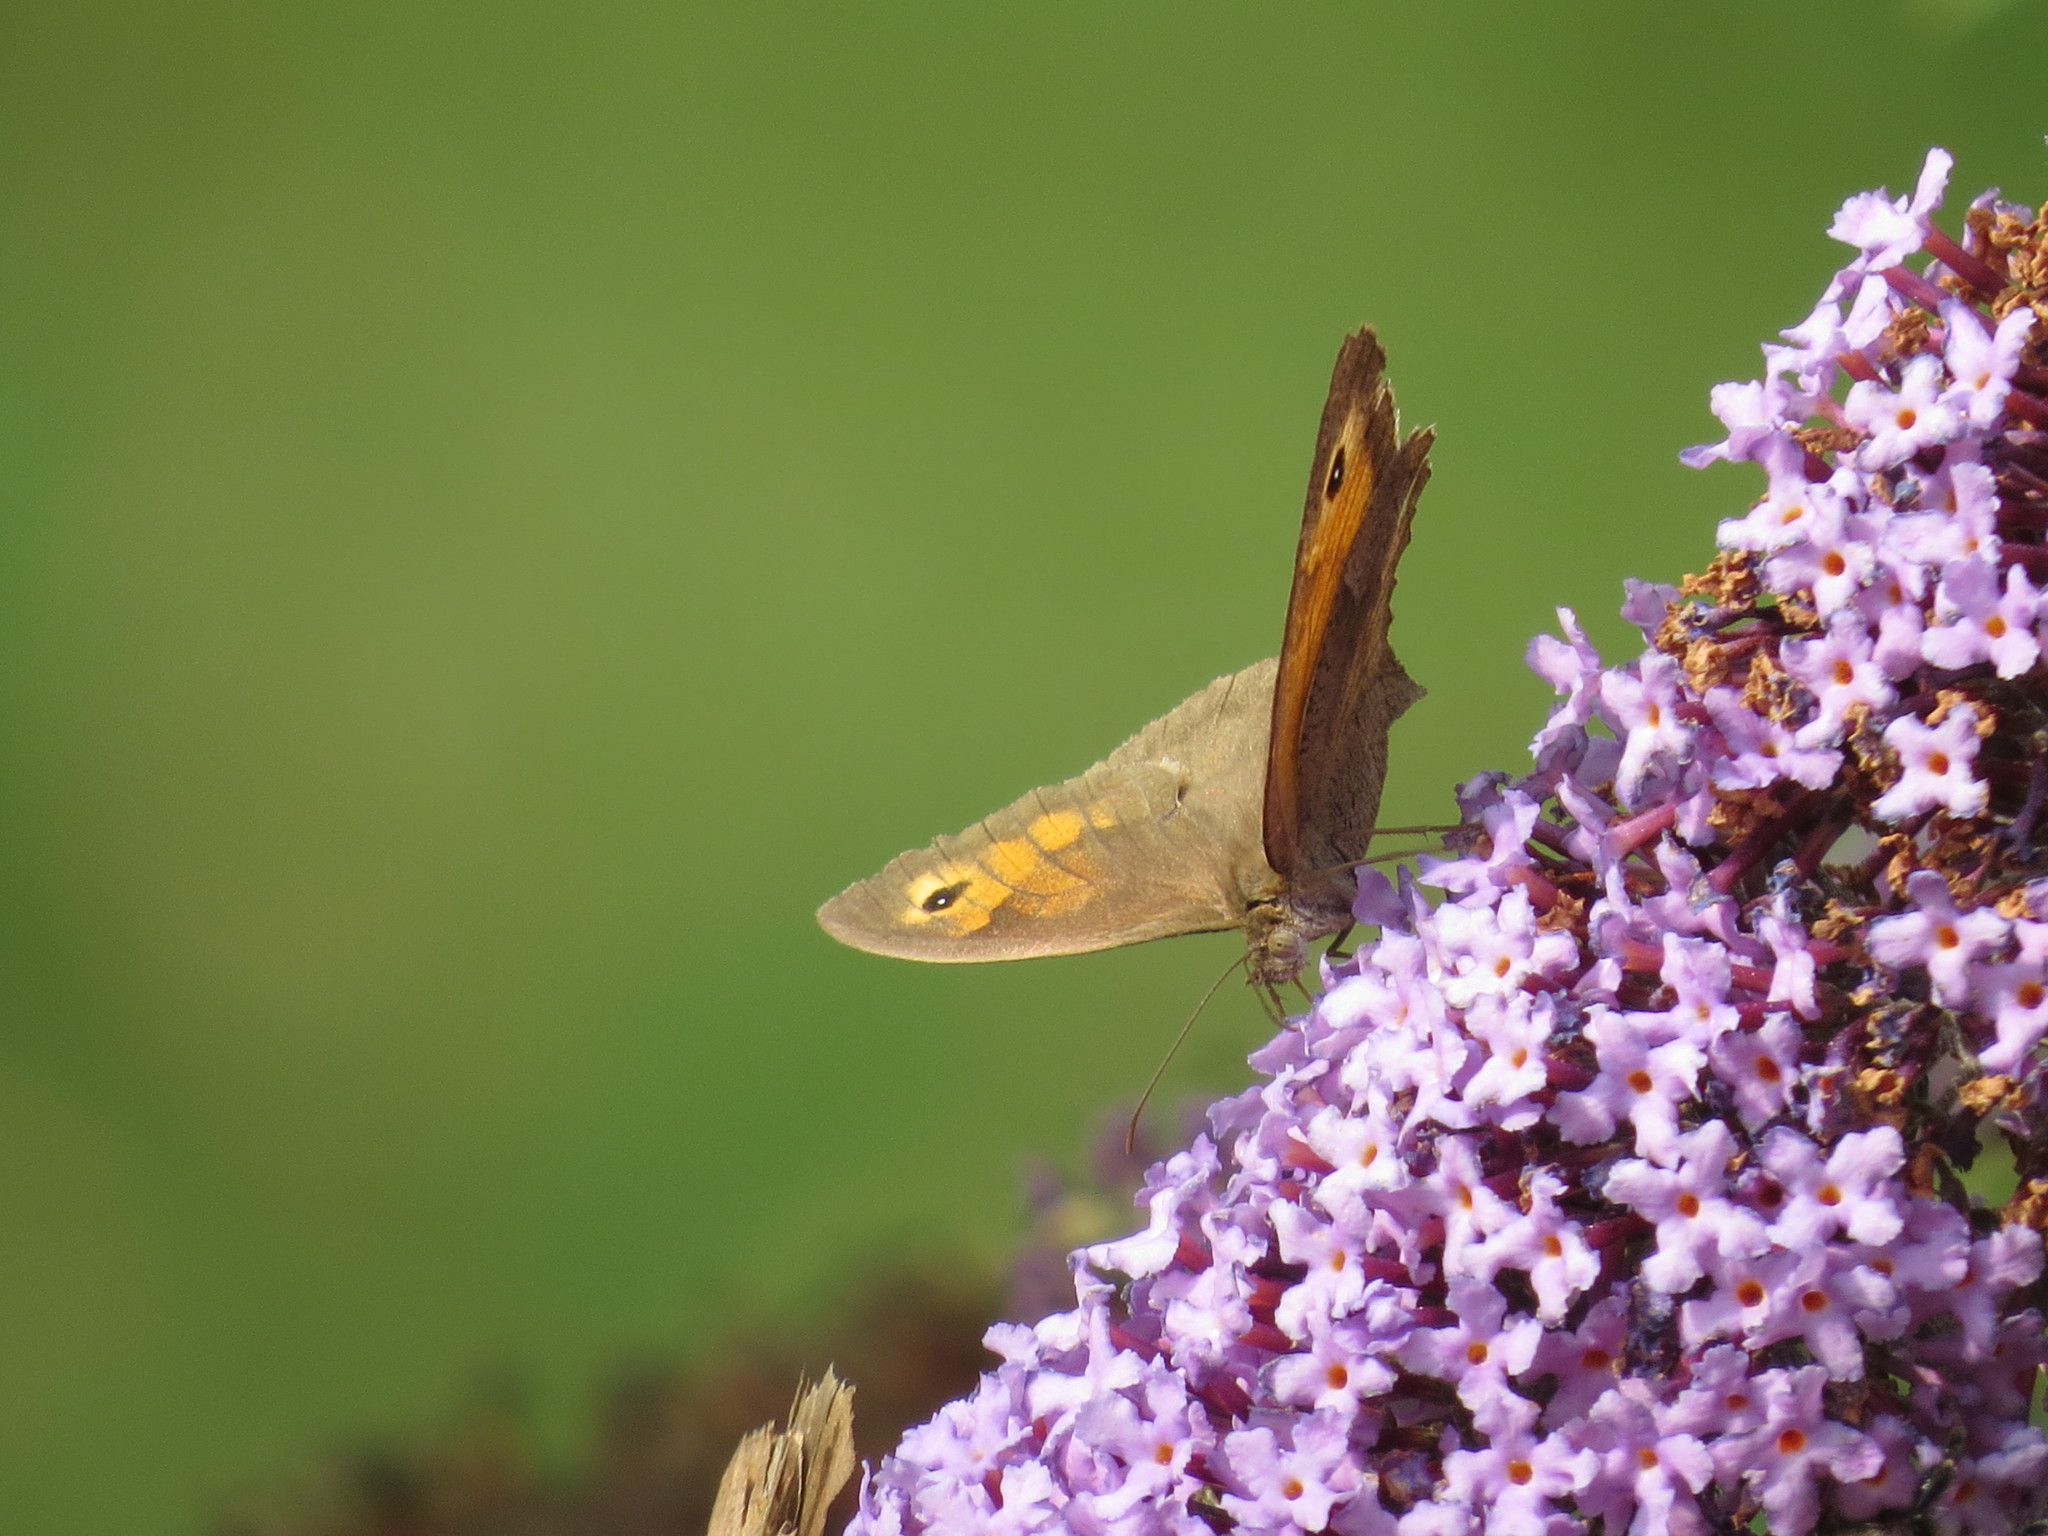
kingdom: Animalia
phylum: Arthropoda
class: Insecta
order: Lepidoptera
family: Nymphalidae
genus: Maniola
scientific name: Maniola jurtina
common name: Meadow brown
